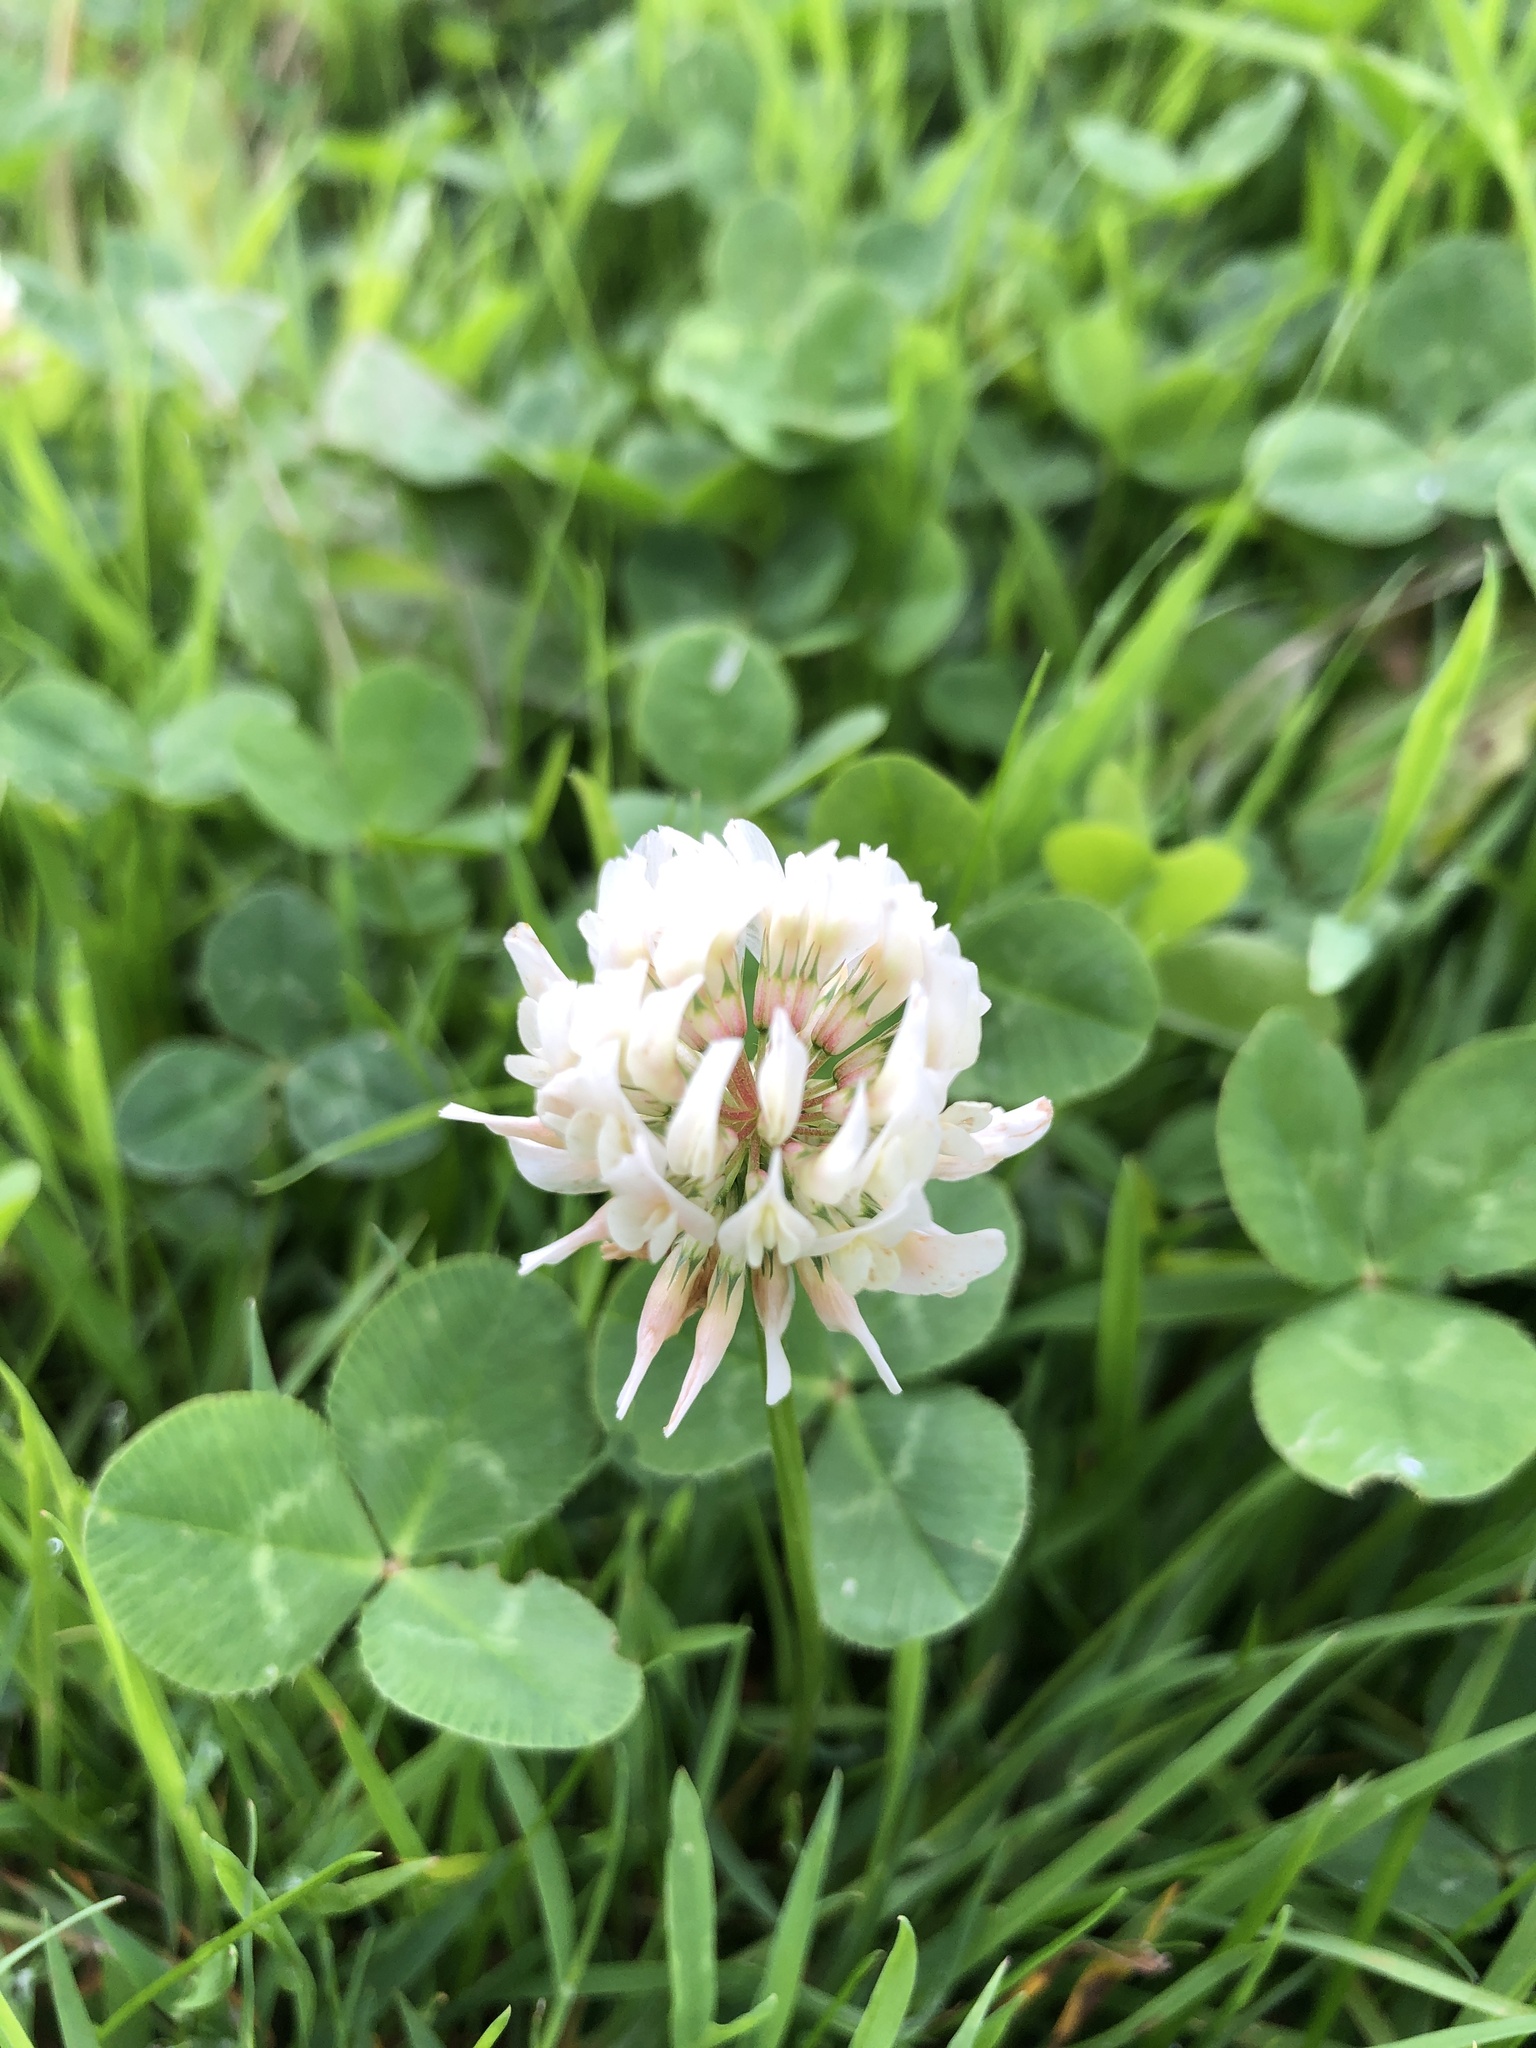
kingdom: Plantae
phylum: Tracheophyta
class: Magnoliopsida
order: Fabales
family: Fabaceae
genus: Trifolium
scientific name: Trifolium repens
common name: White clover
